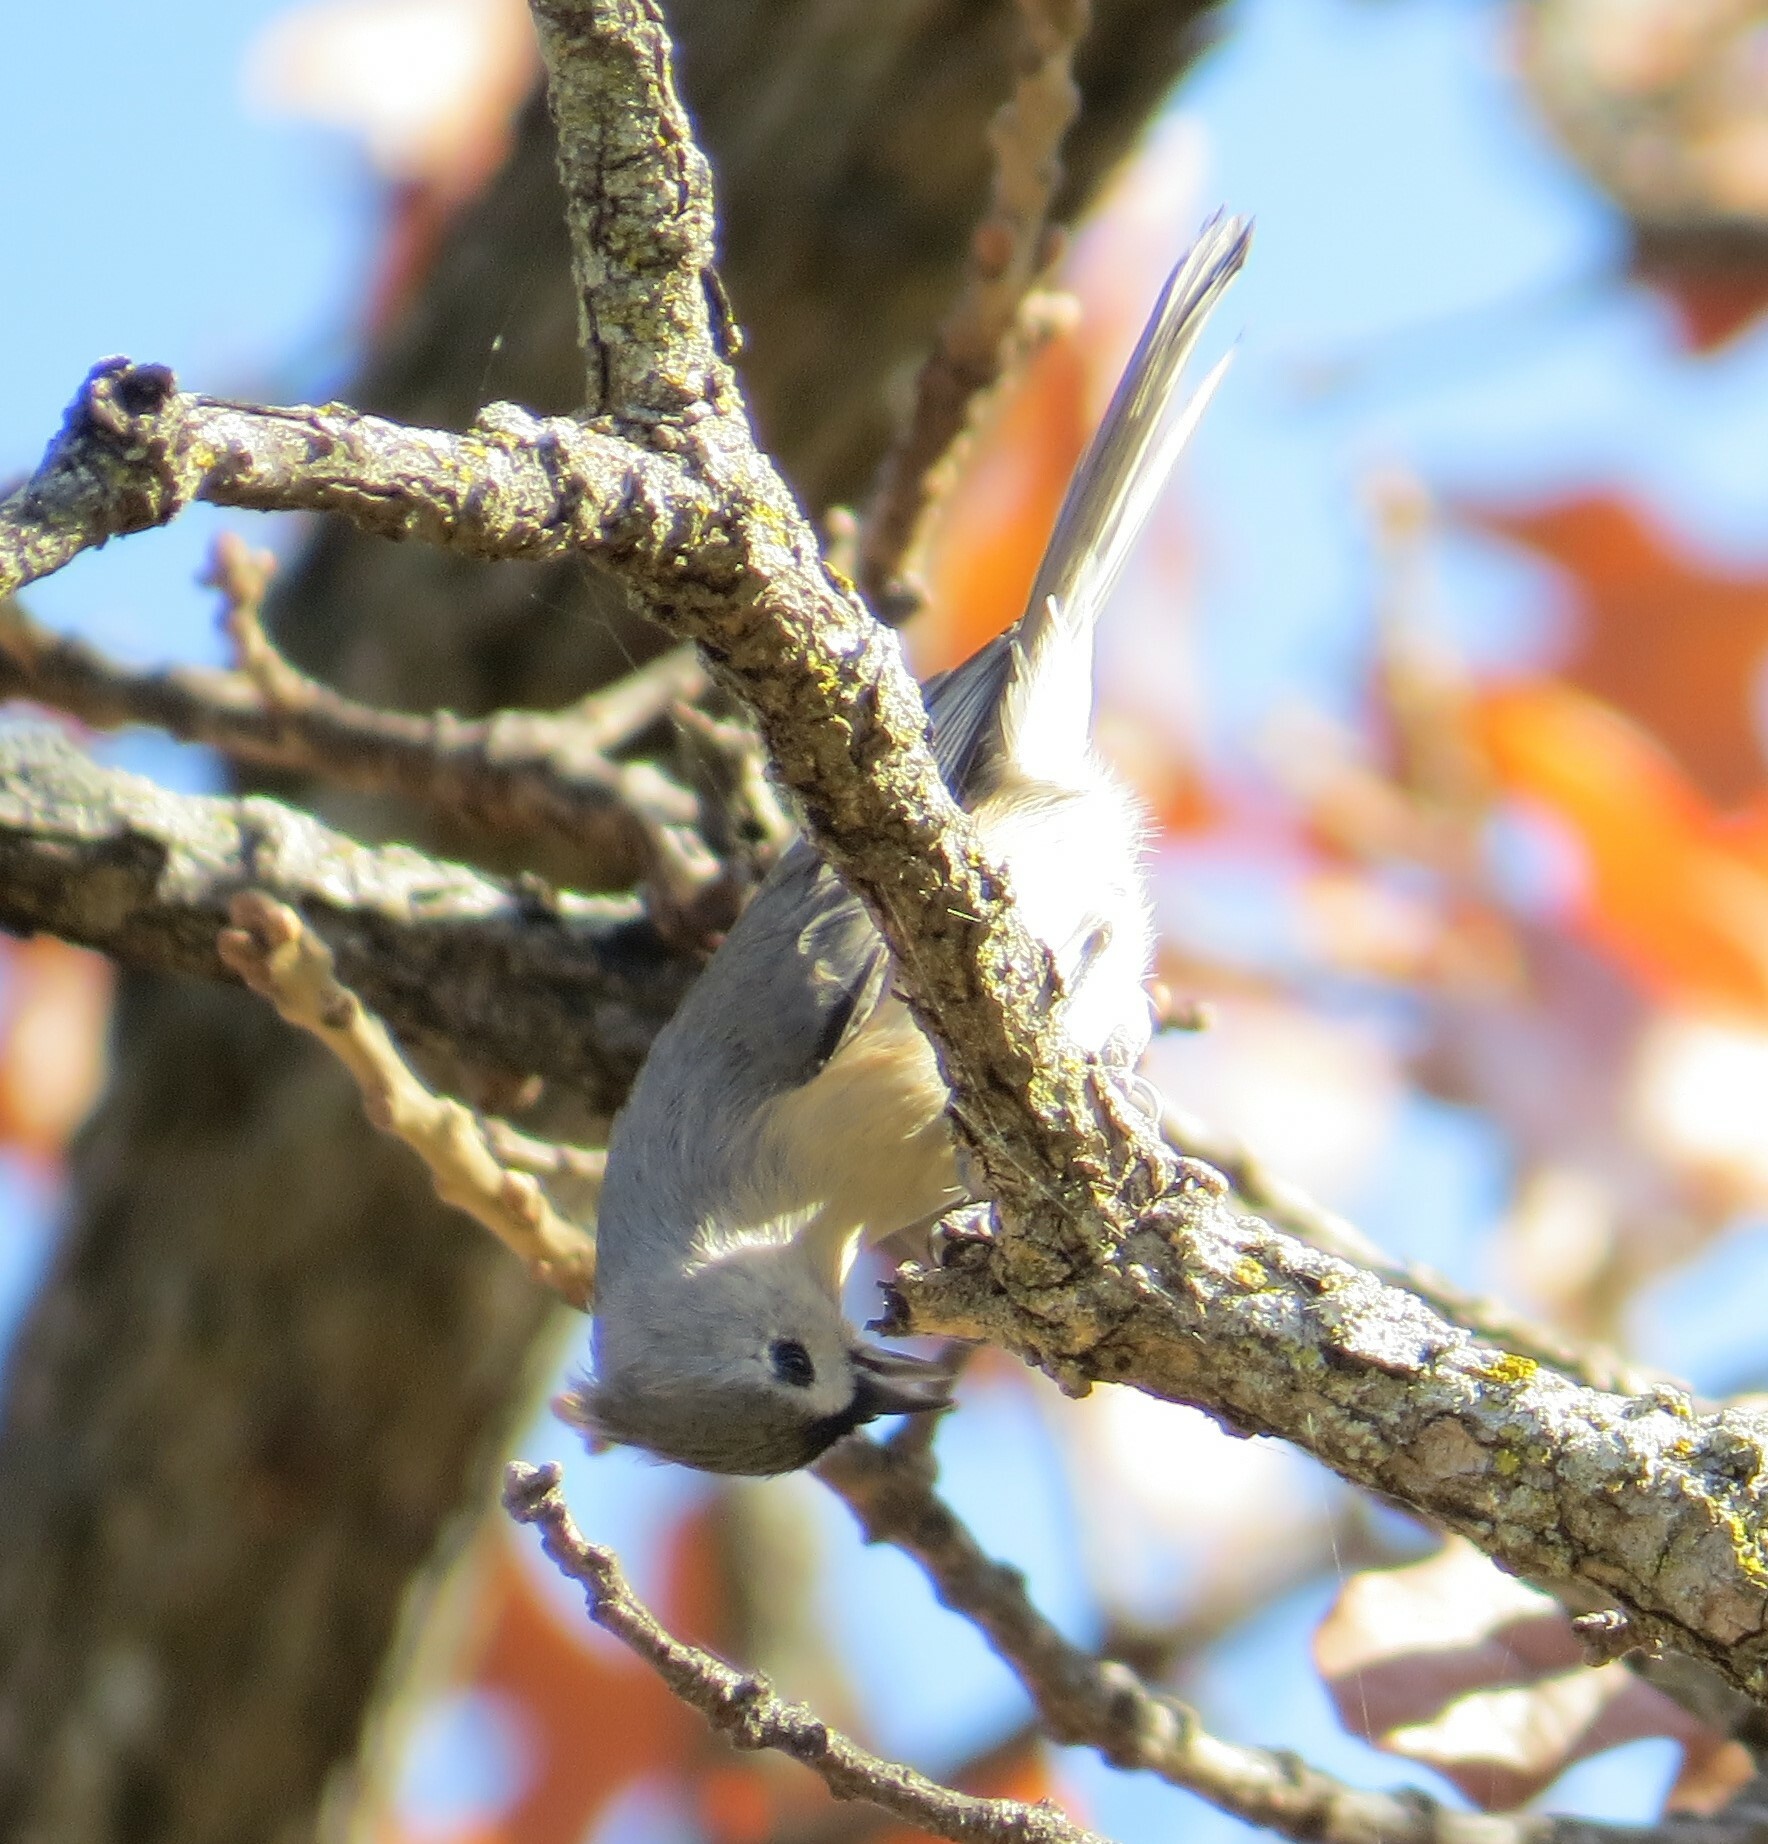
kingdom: Animalia
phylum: Chordata
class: Aves
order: Passeriformes
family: Paridae
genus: Baeolophus
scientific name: Baeolophus bicolor
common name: Tufted titmouse
